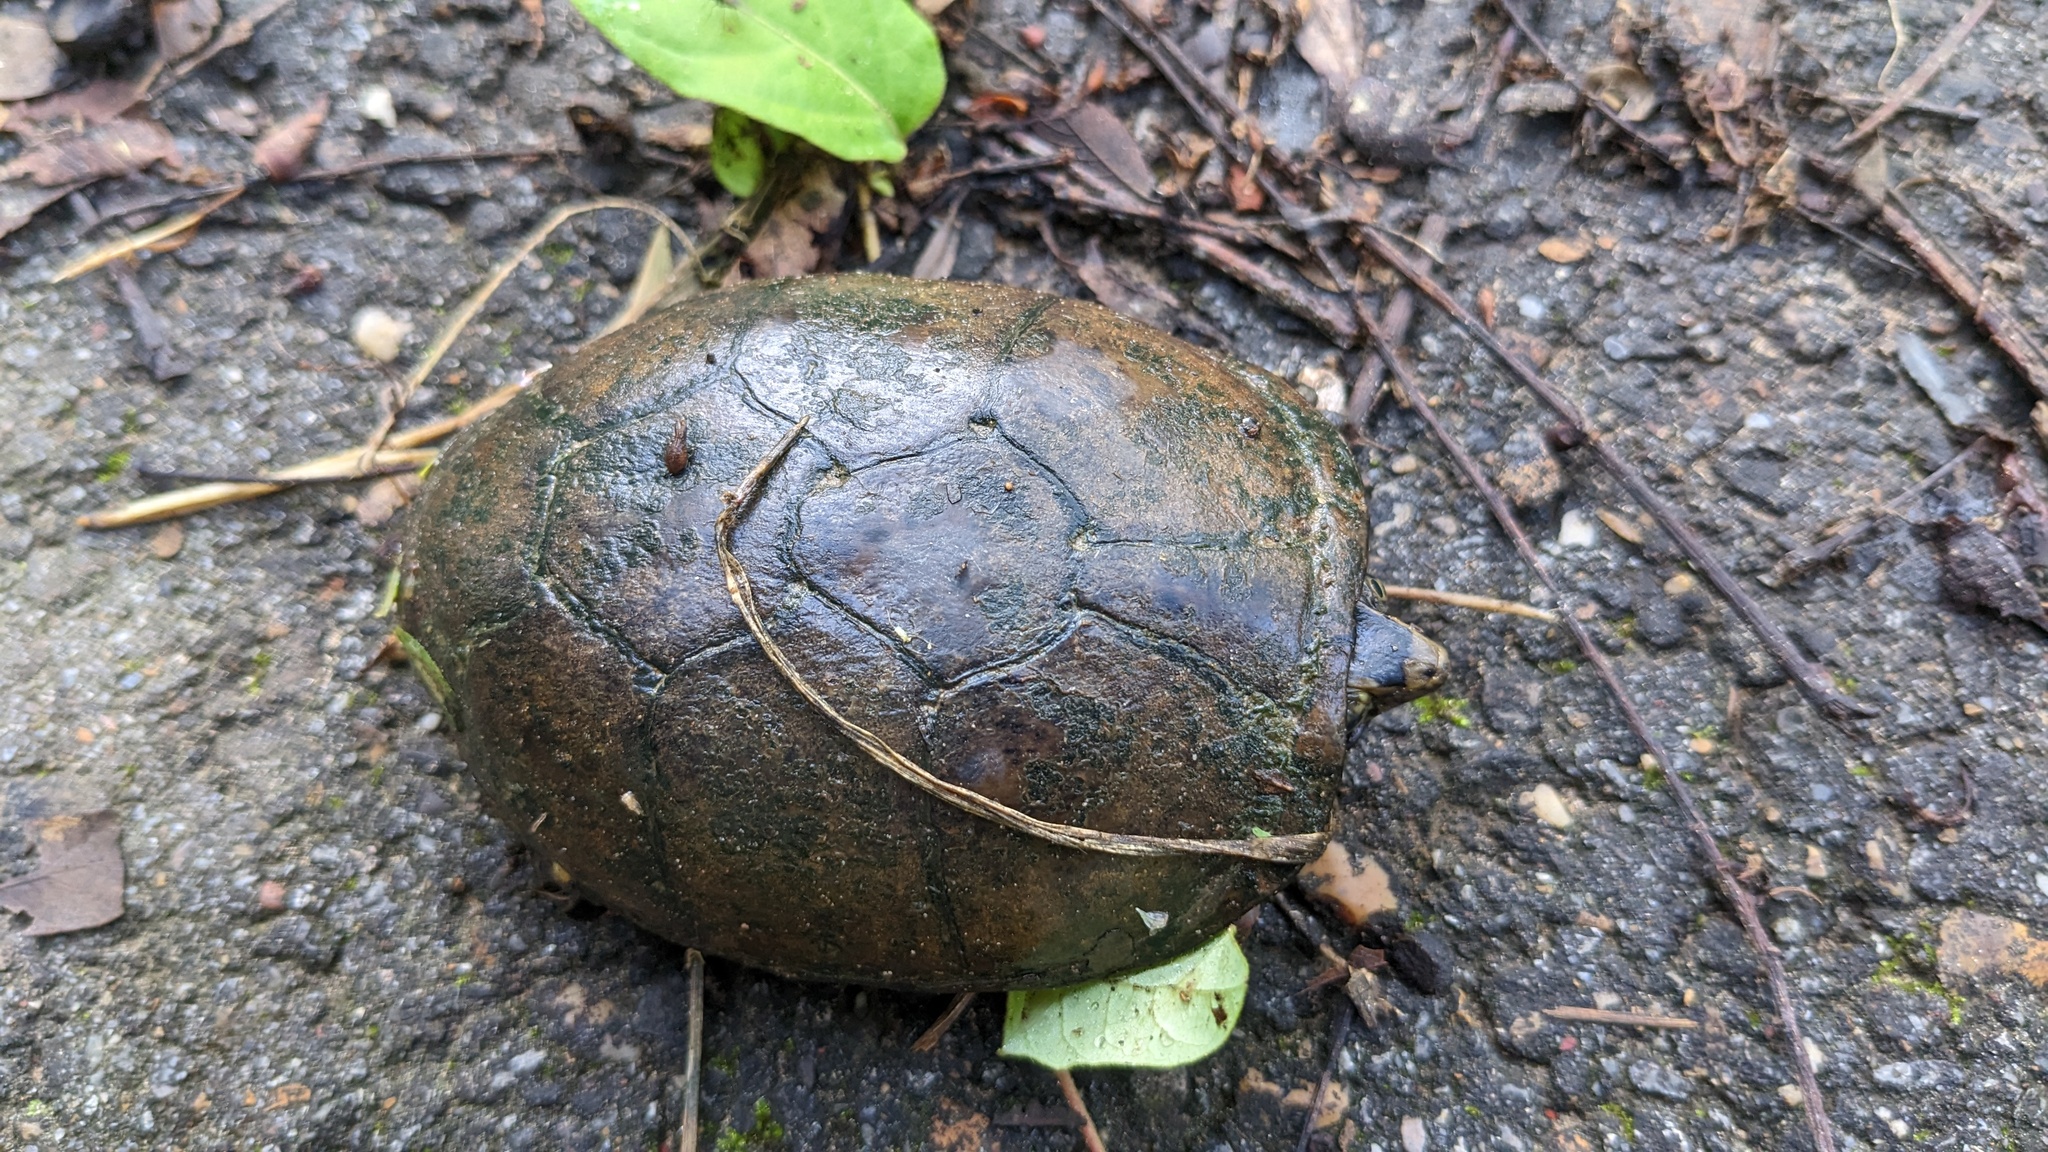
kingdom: Animalia
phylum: Chordata
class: Testudines
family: Kinosternidae
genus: Kinosternon
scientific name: Kinosternon subrubrum
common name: Eastern mud turtle
